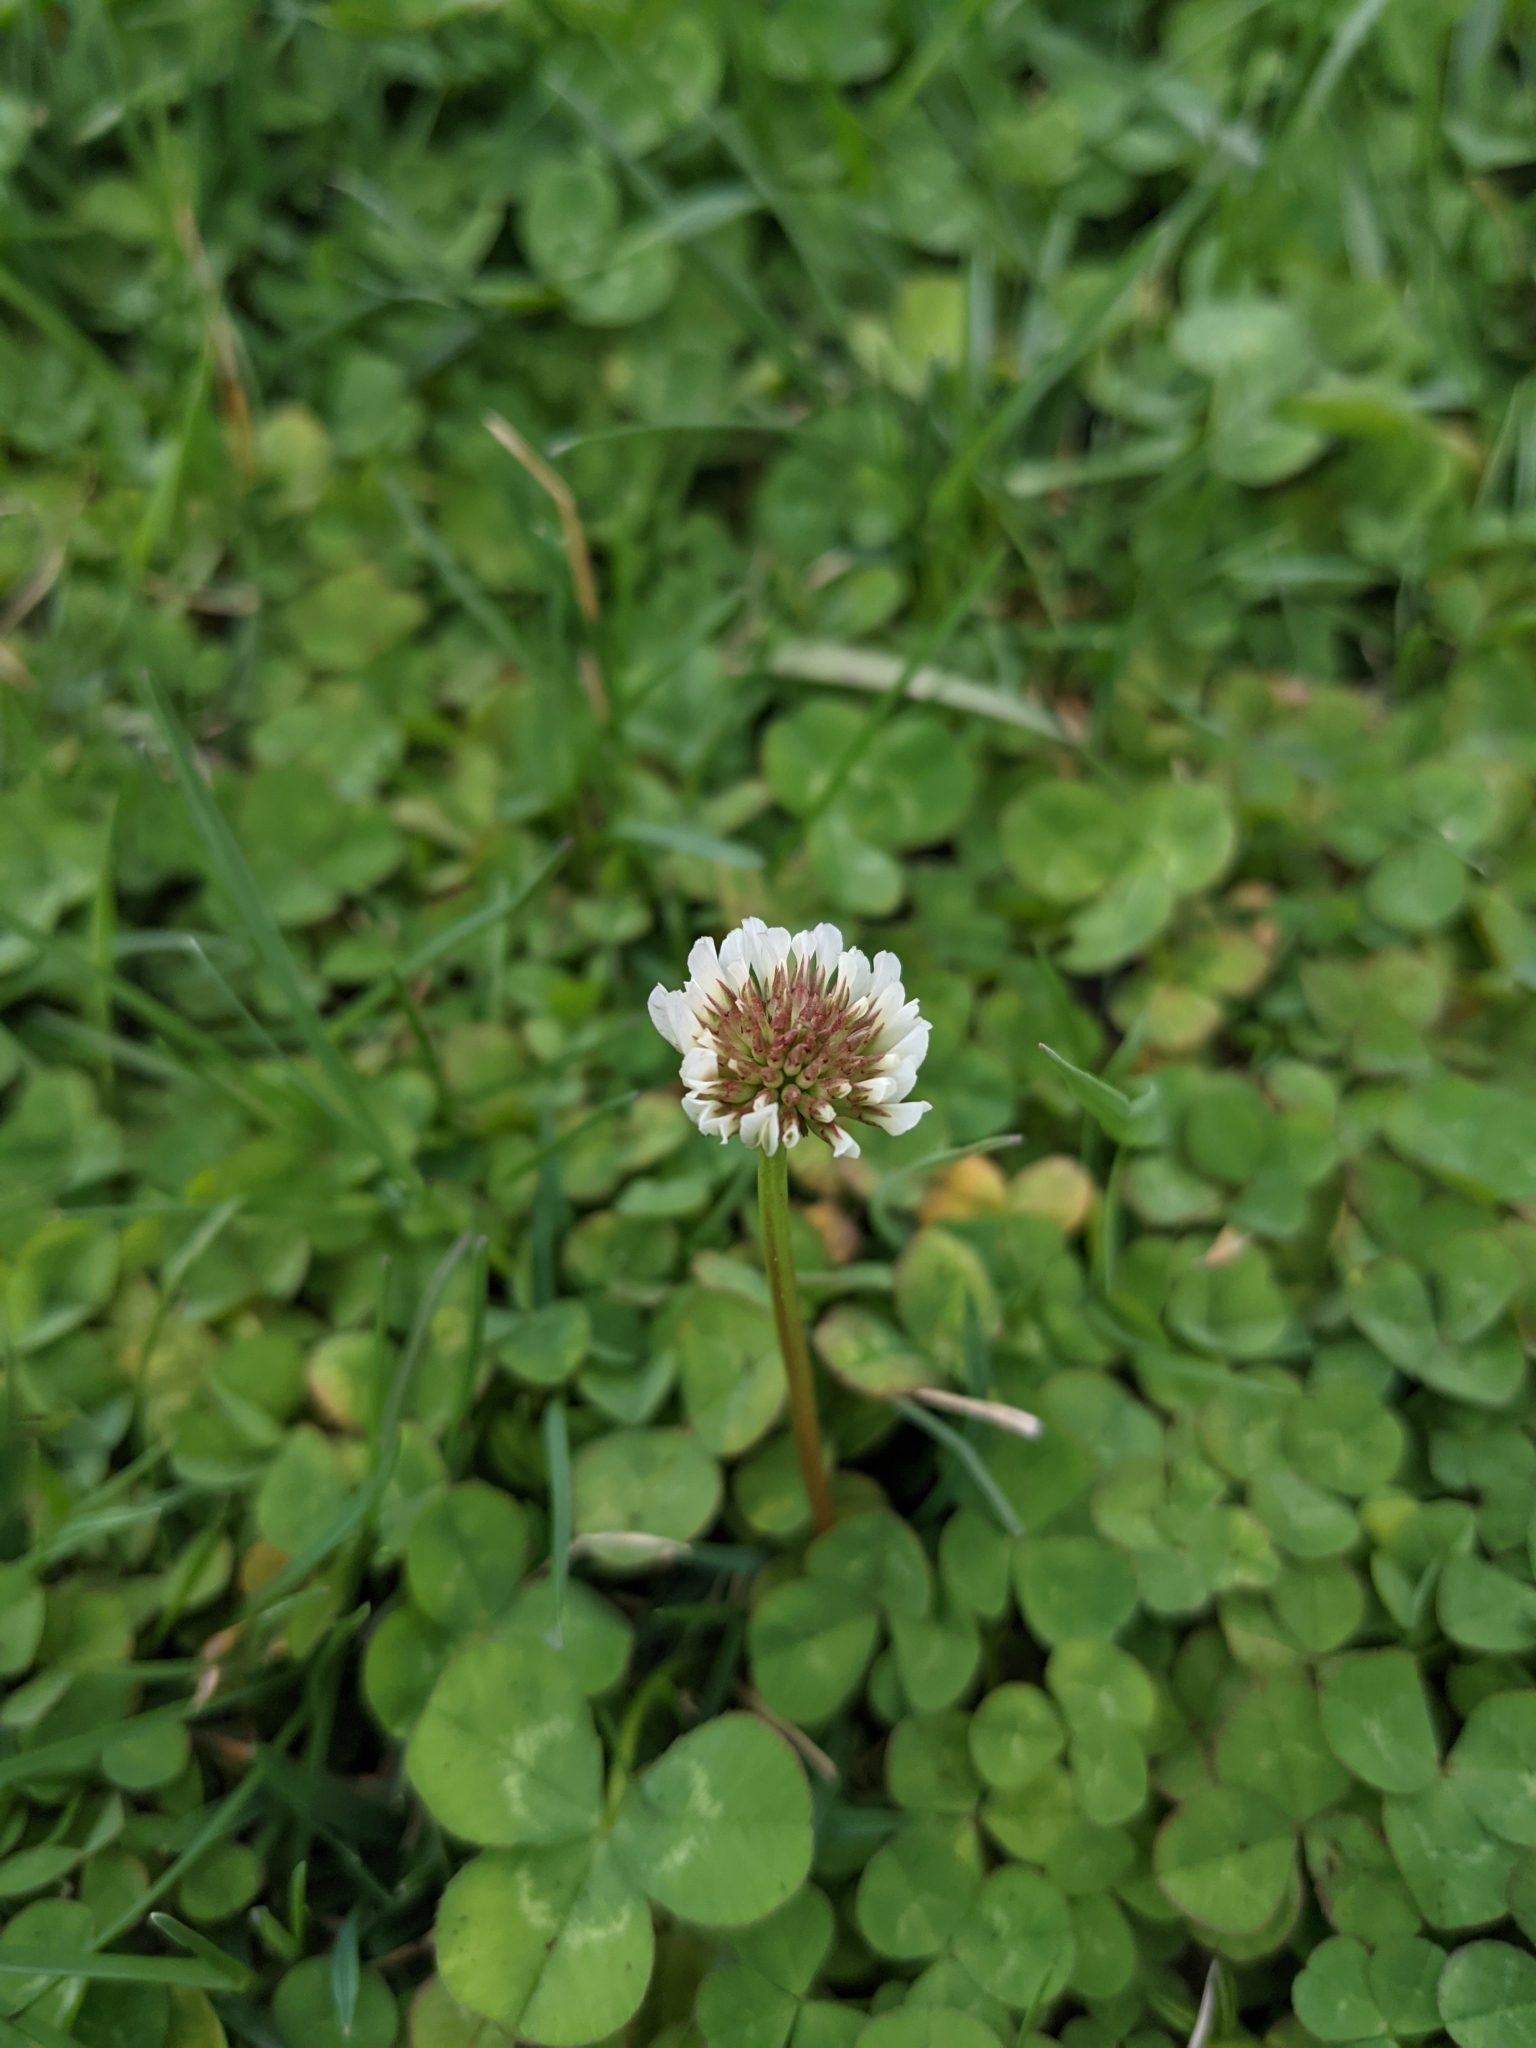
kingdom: Plantae
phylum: Tracheophyta
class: Magnoliopsida
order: Fabales
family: Fabaceae
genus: Trifolium
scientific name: Trifolium repens
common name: White clover
